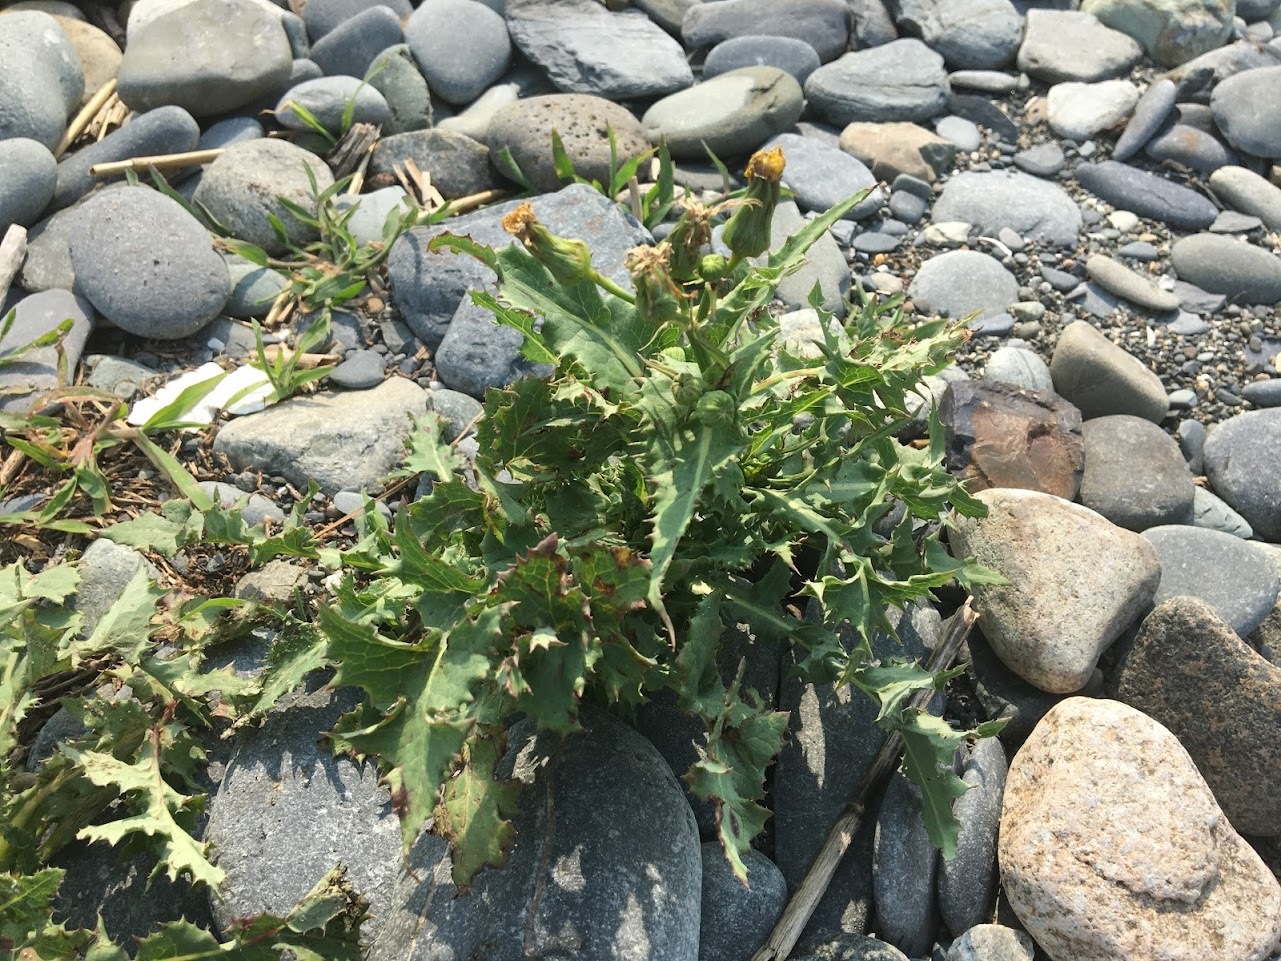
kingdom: Plantae
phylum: Tracheophyta
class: Magnoliopsida
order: Asterales
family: Asteraceae
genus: Sonchus
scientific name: Sonchus asper
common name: Prickly sow-thistle
